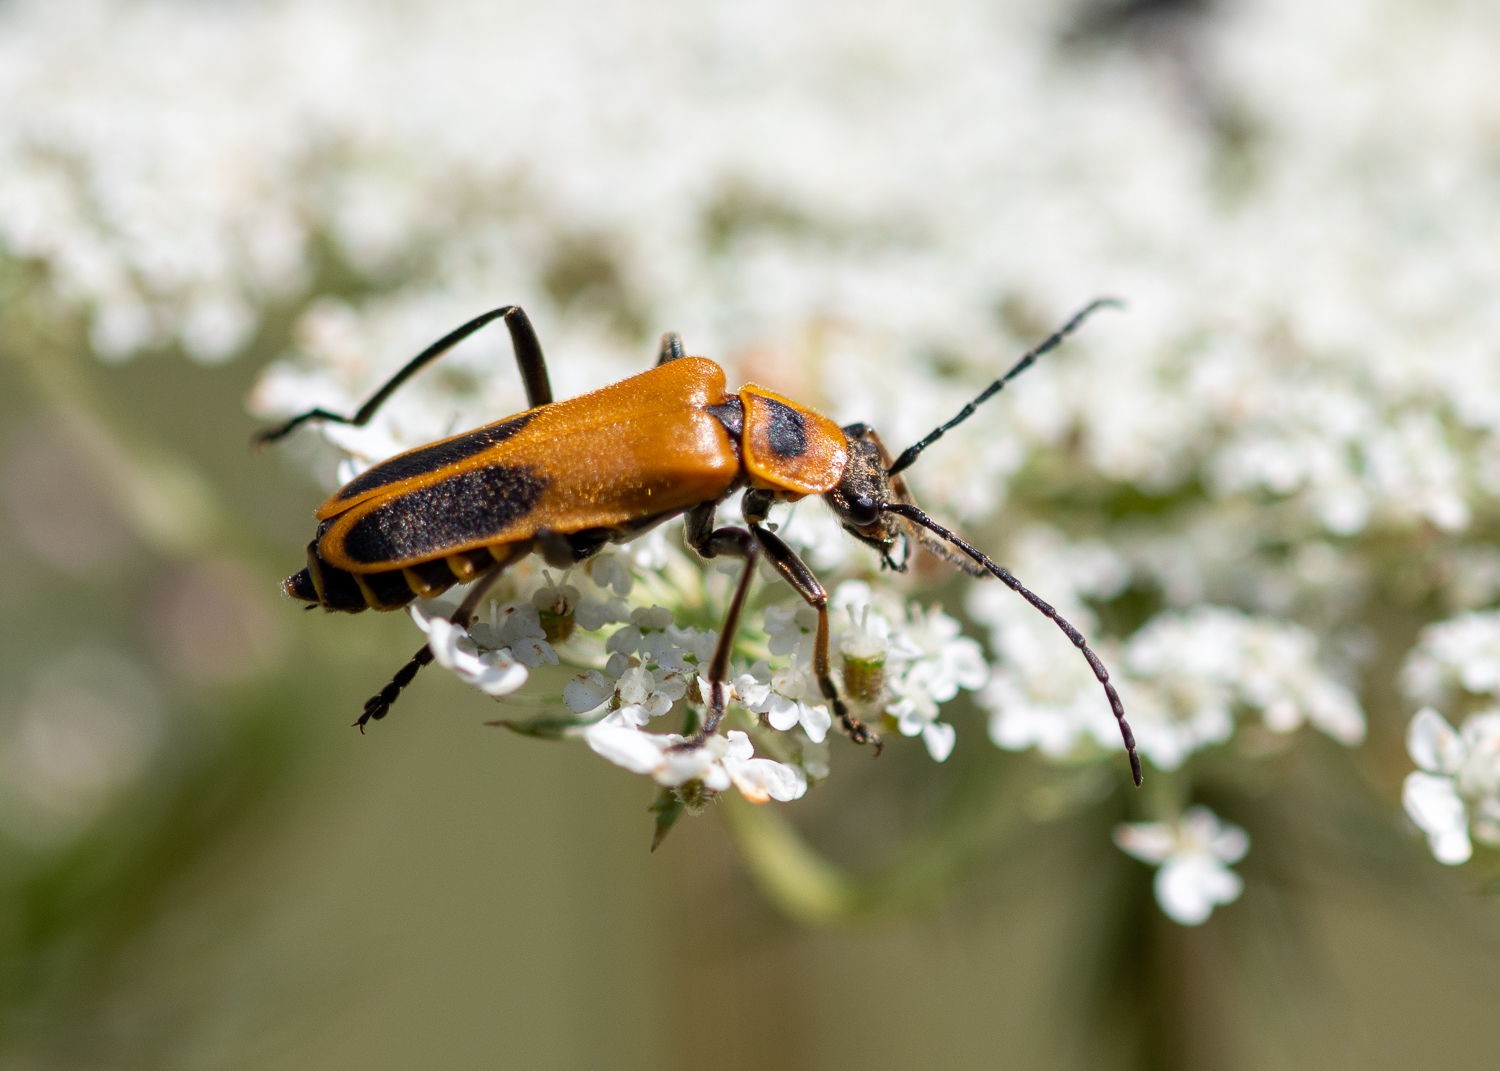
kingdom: Animalia
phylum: Arthropoda
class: Insecta
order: Coleoptera
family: Cantharidae
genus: Chauliognathus
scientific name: Chauliognathus pensylvanicus
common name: Goldenrod soldier beetle
